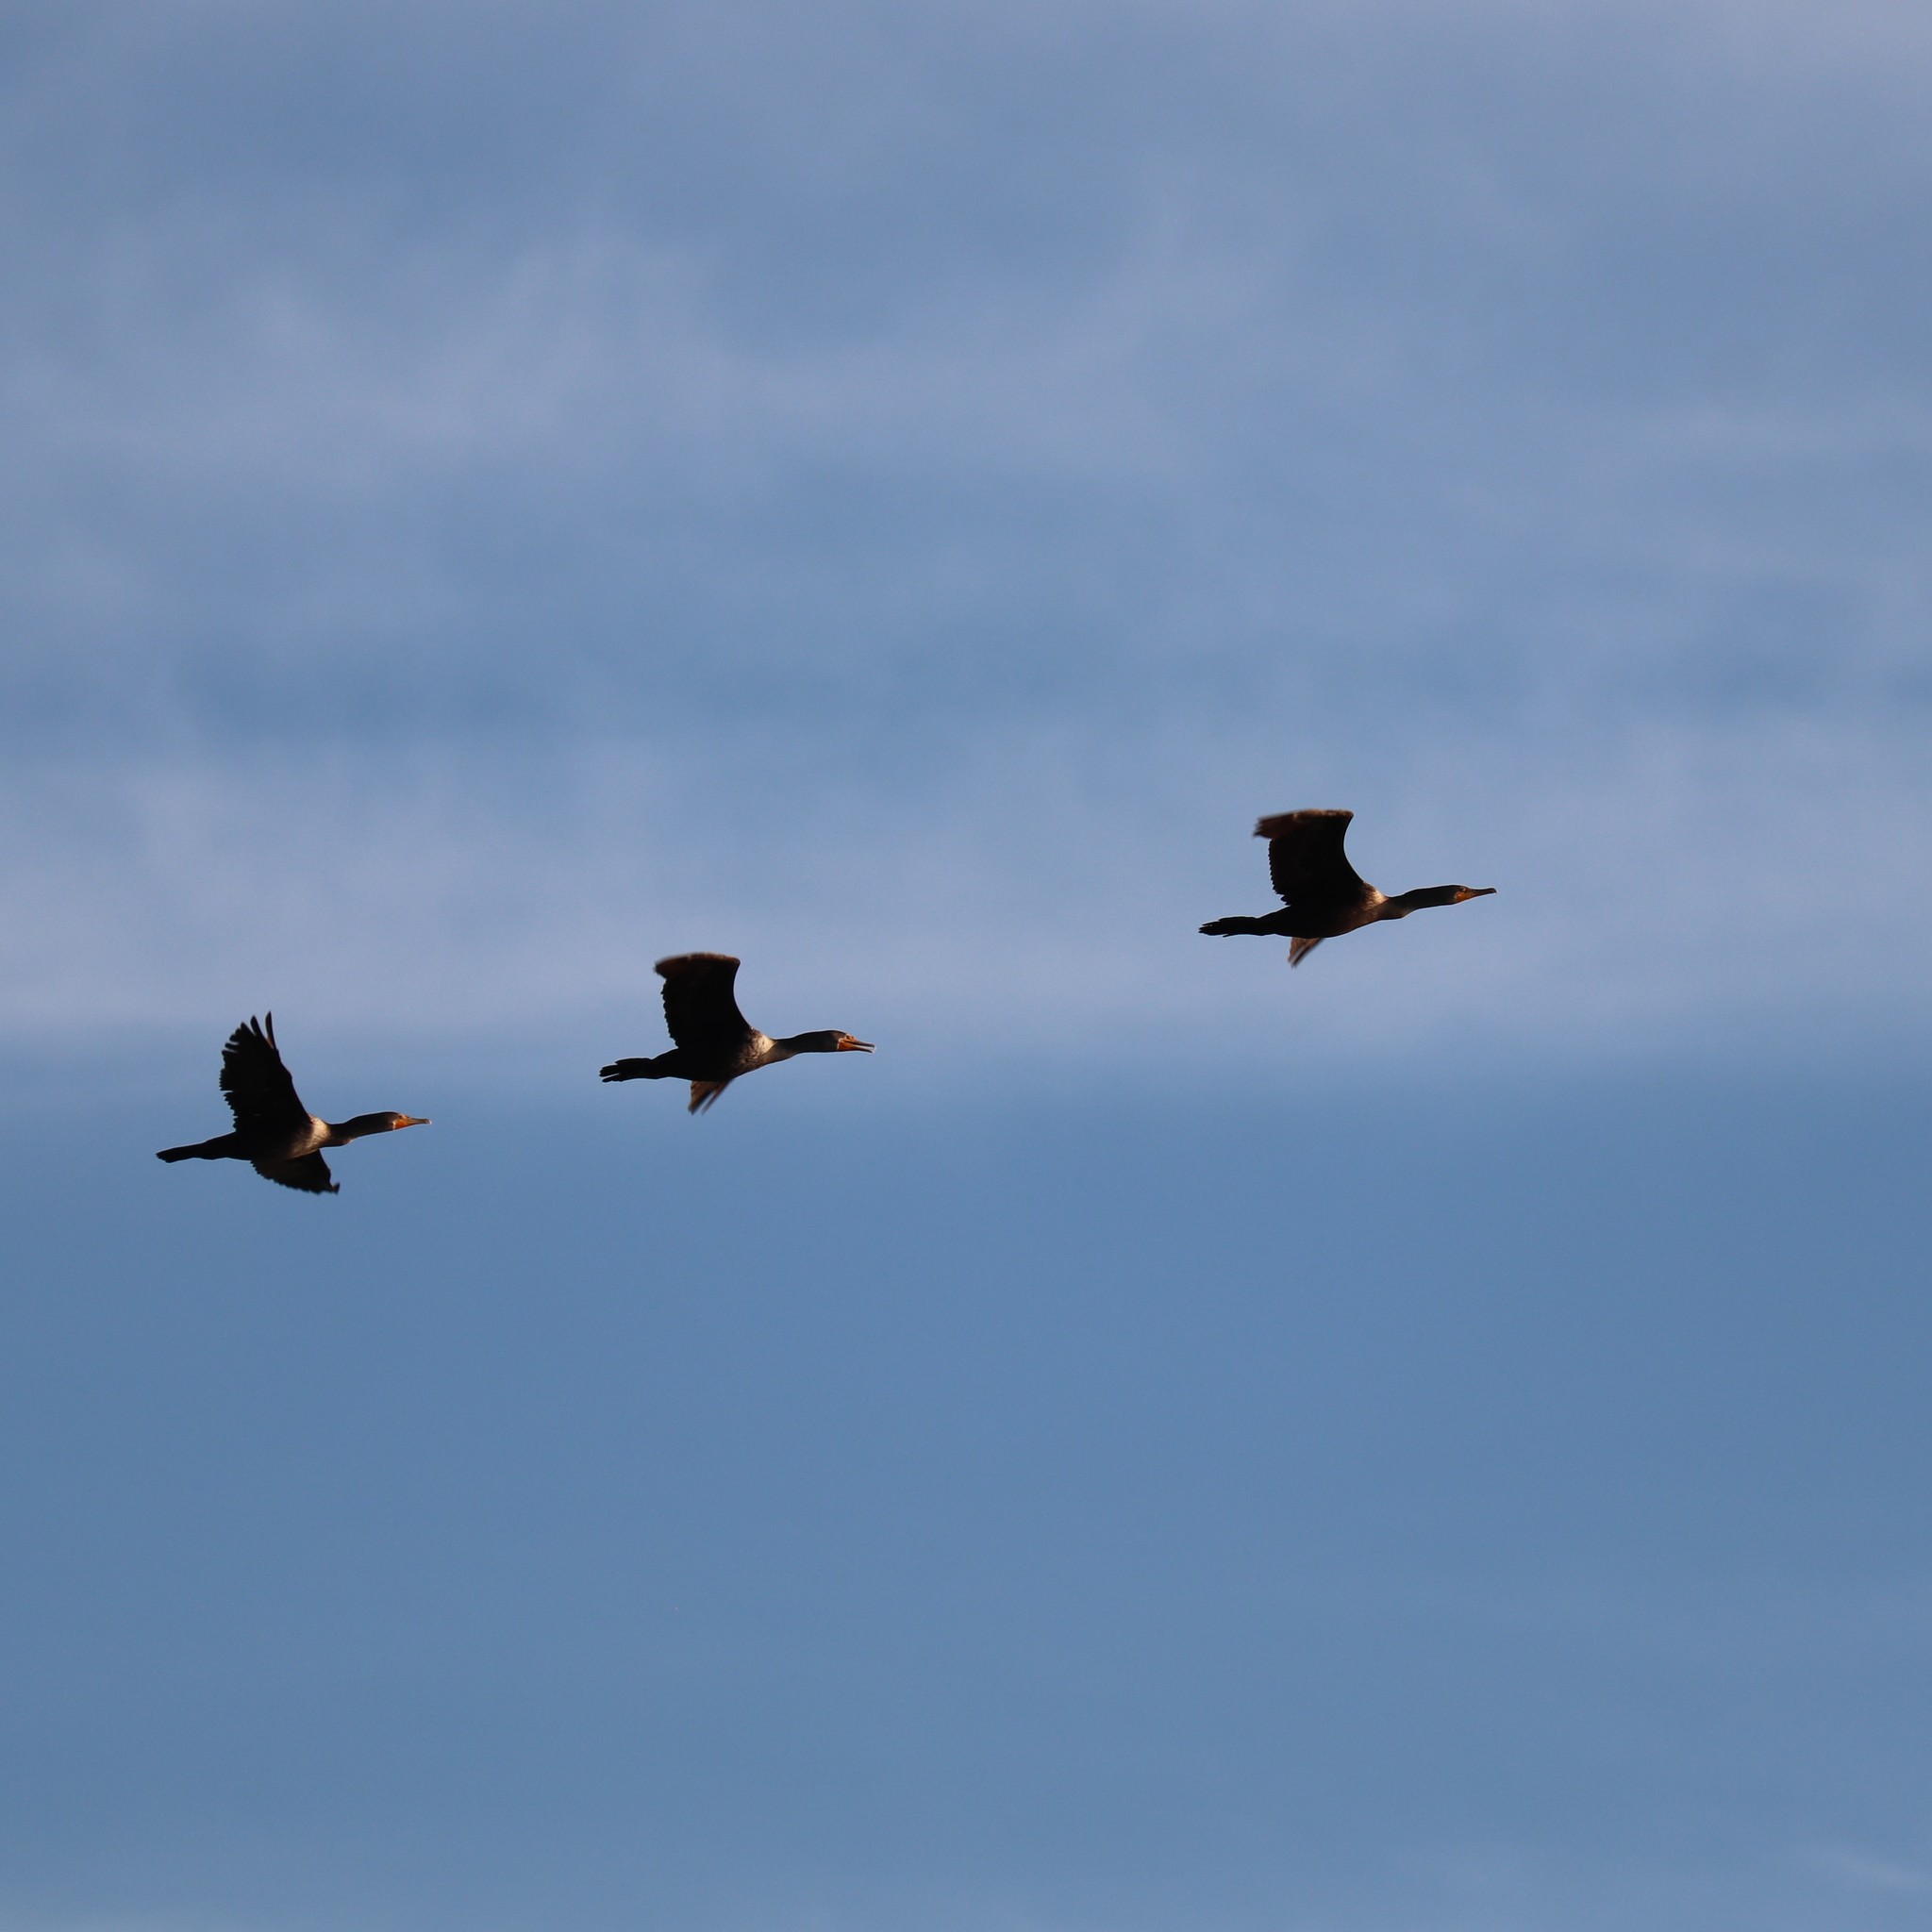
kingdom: Animalia
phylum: Chordata
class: Aves
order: Suliformes
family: Phalacrocoracidae
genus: Phalacrocorax
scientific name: Phalacrocorax auritus
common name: Double-crested cormorant
